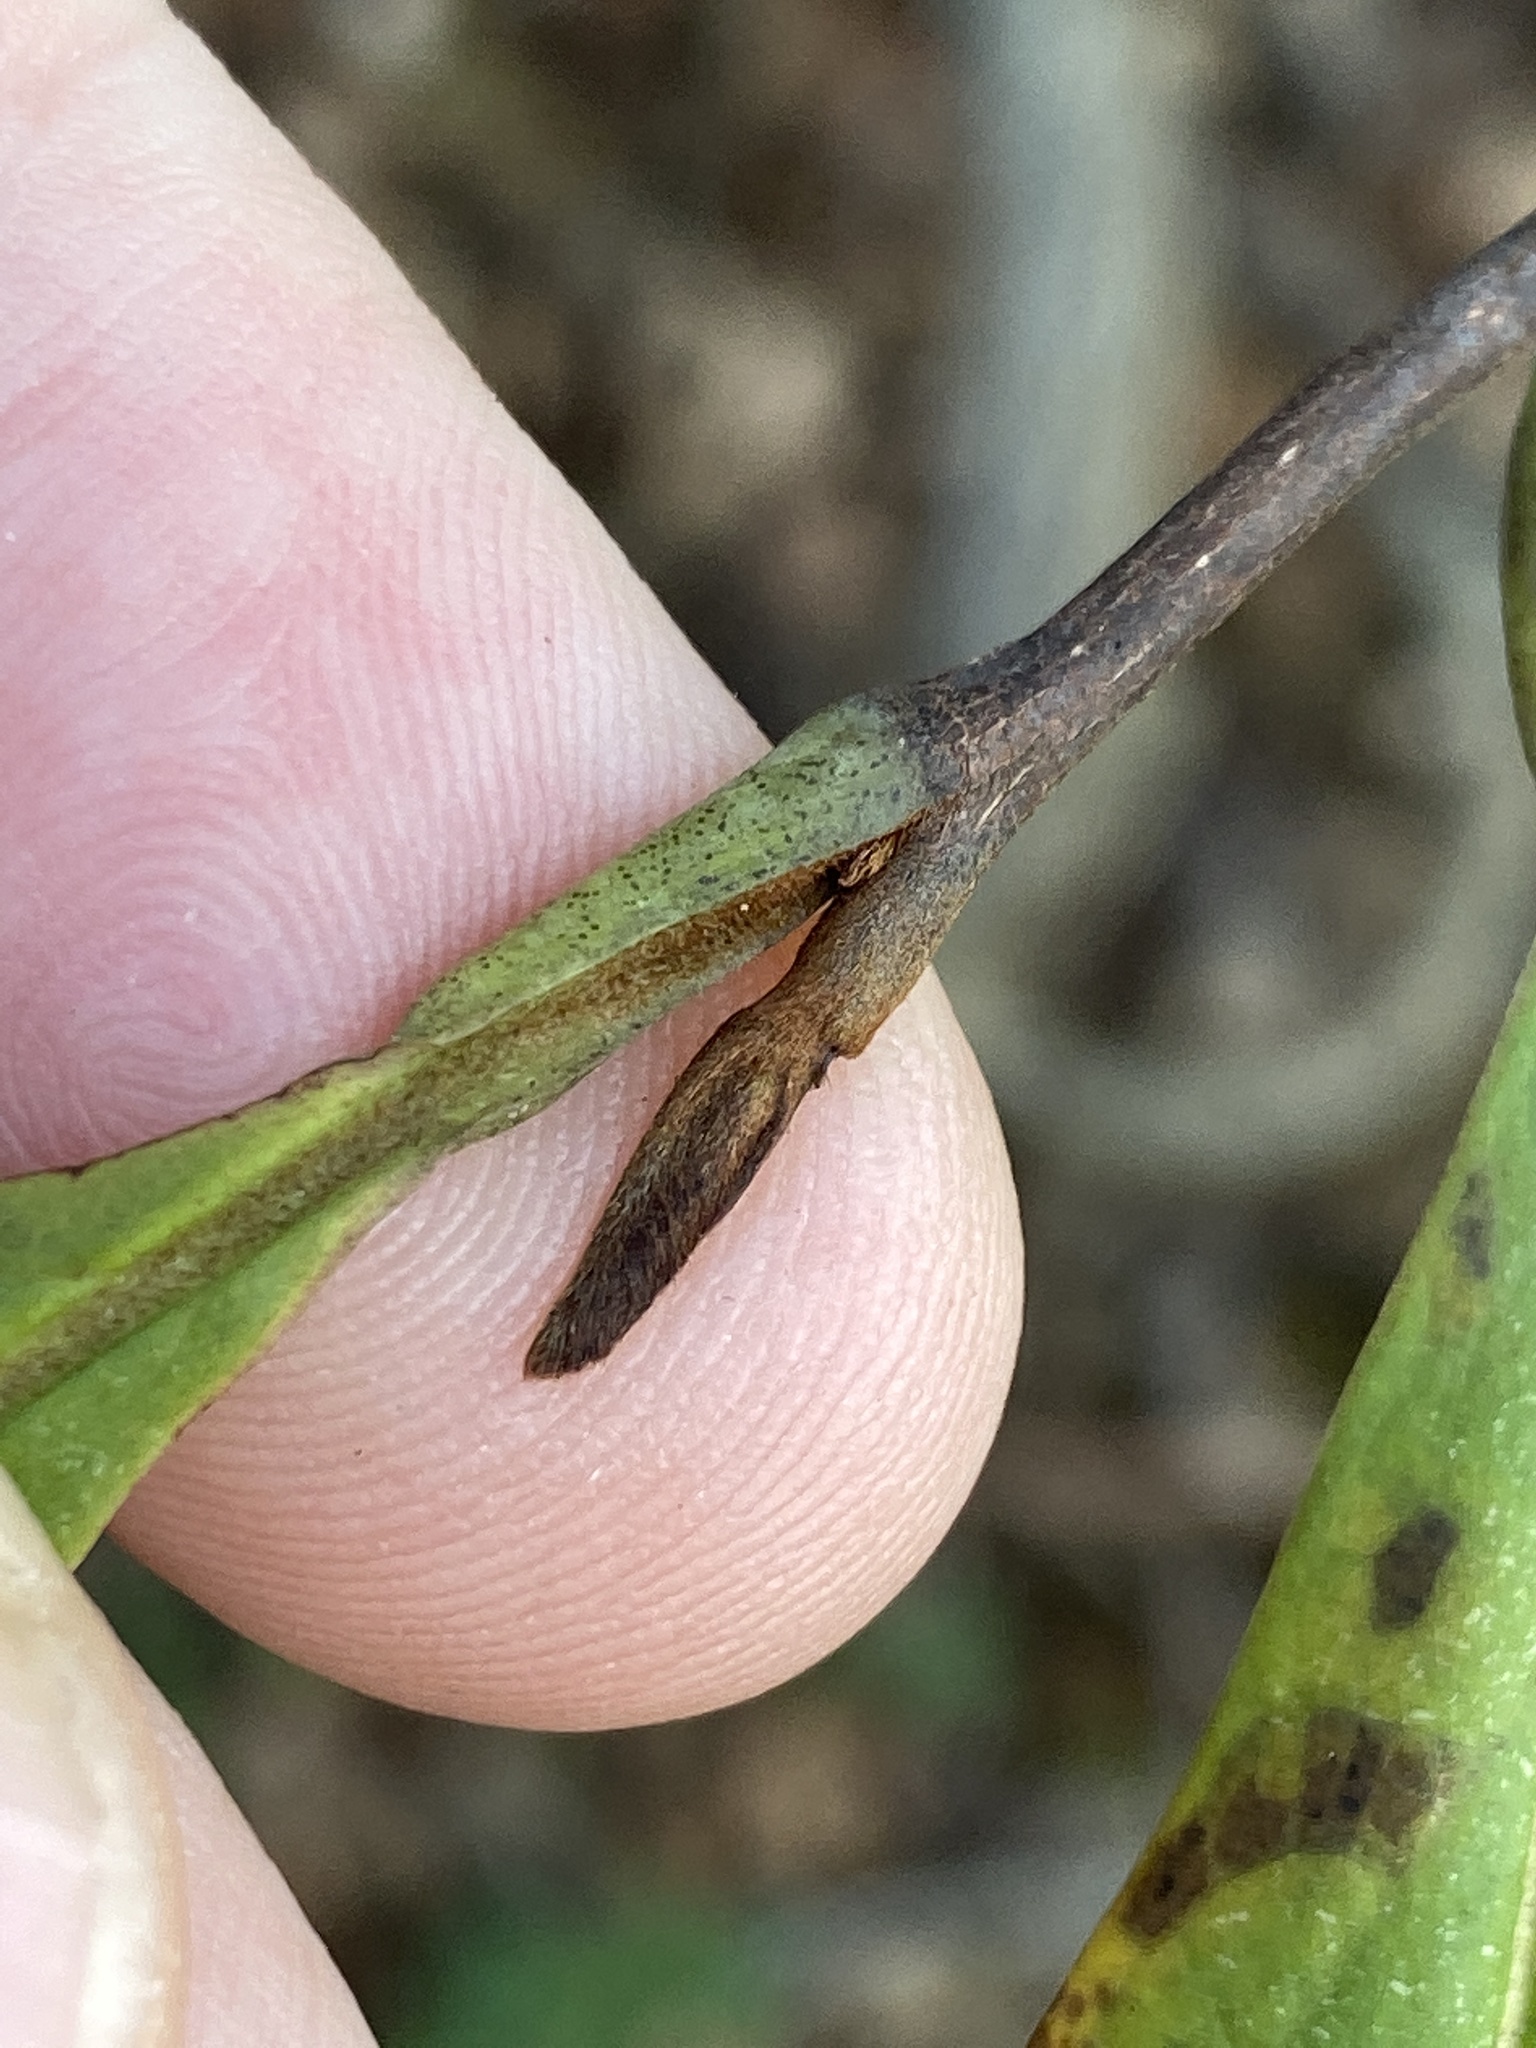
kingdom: Plantae
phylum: Tracheophyta
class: Magnoliopsida
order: Magnoliales
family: Annonaceae
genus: Asimina
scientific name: Asimina triloba
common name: Dog-banana
